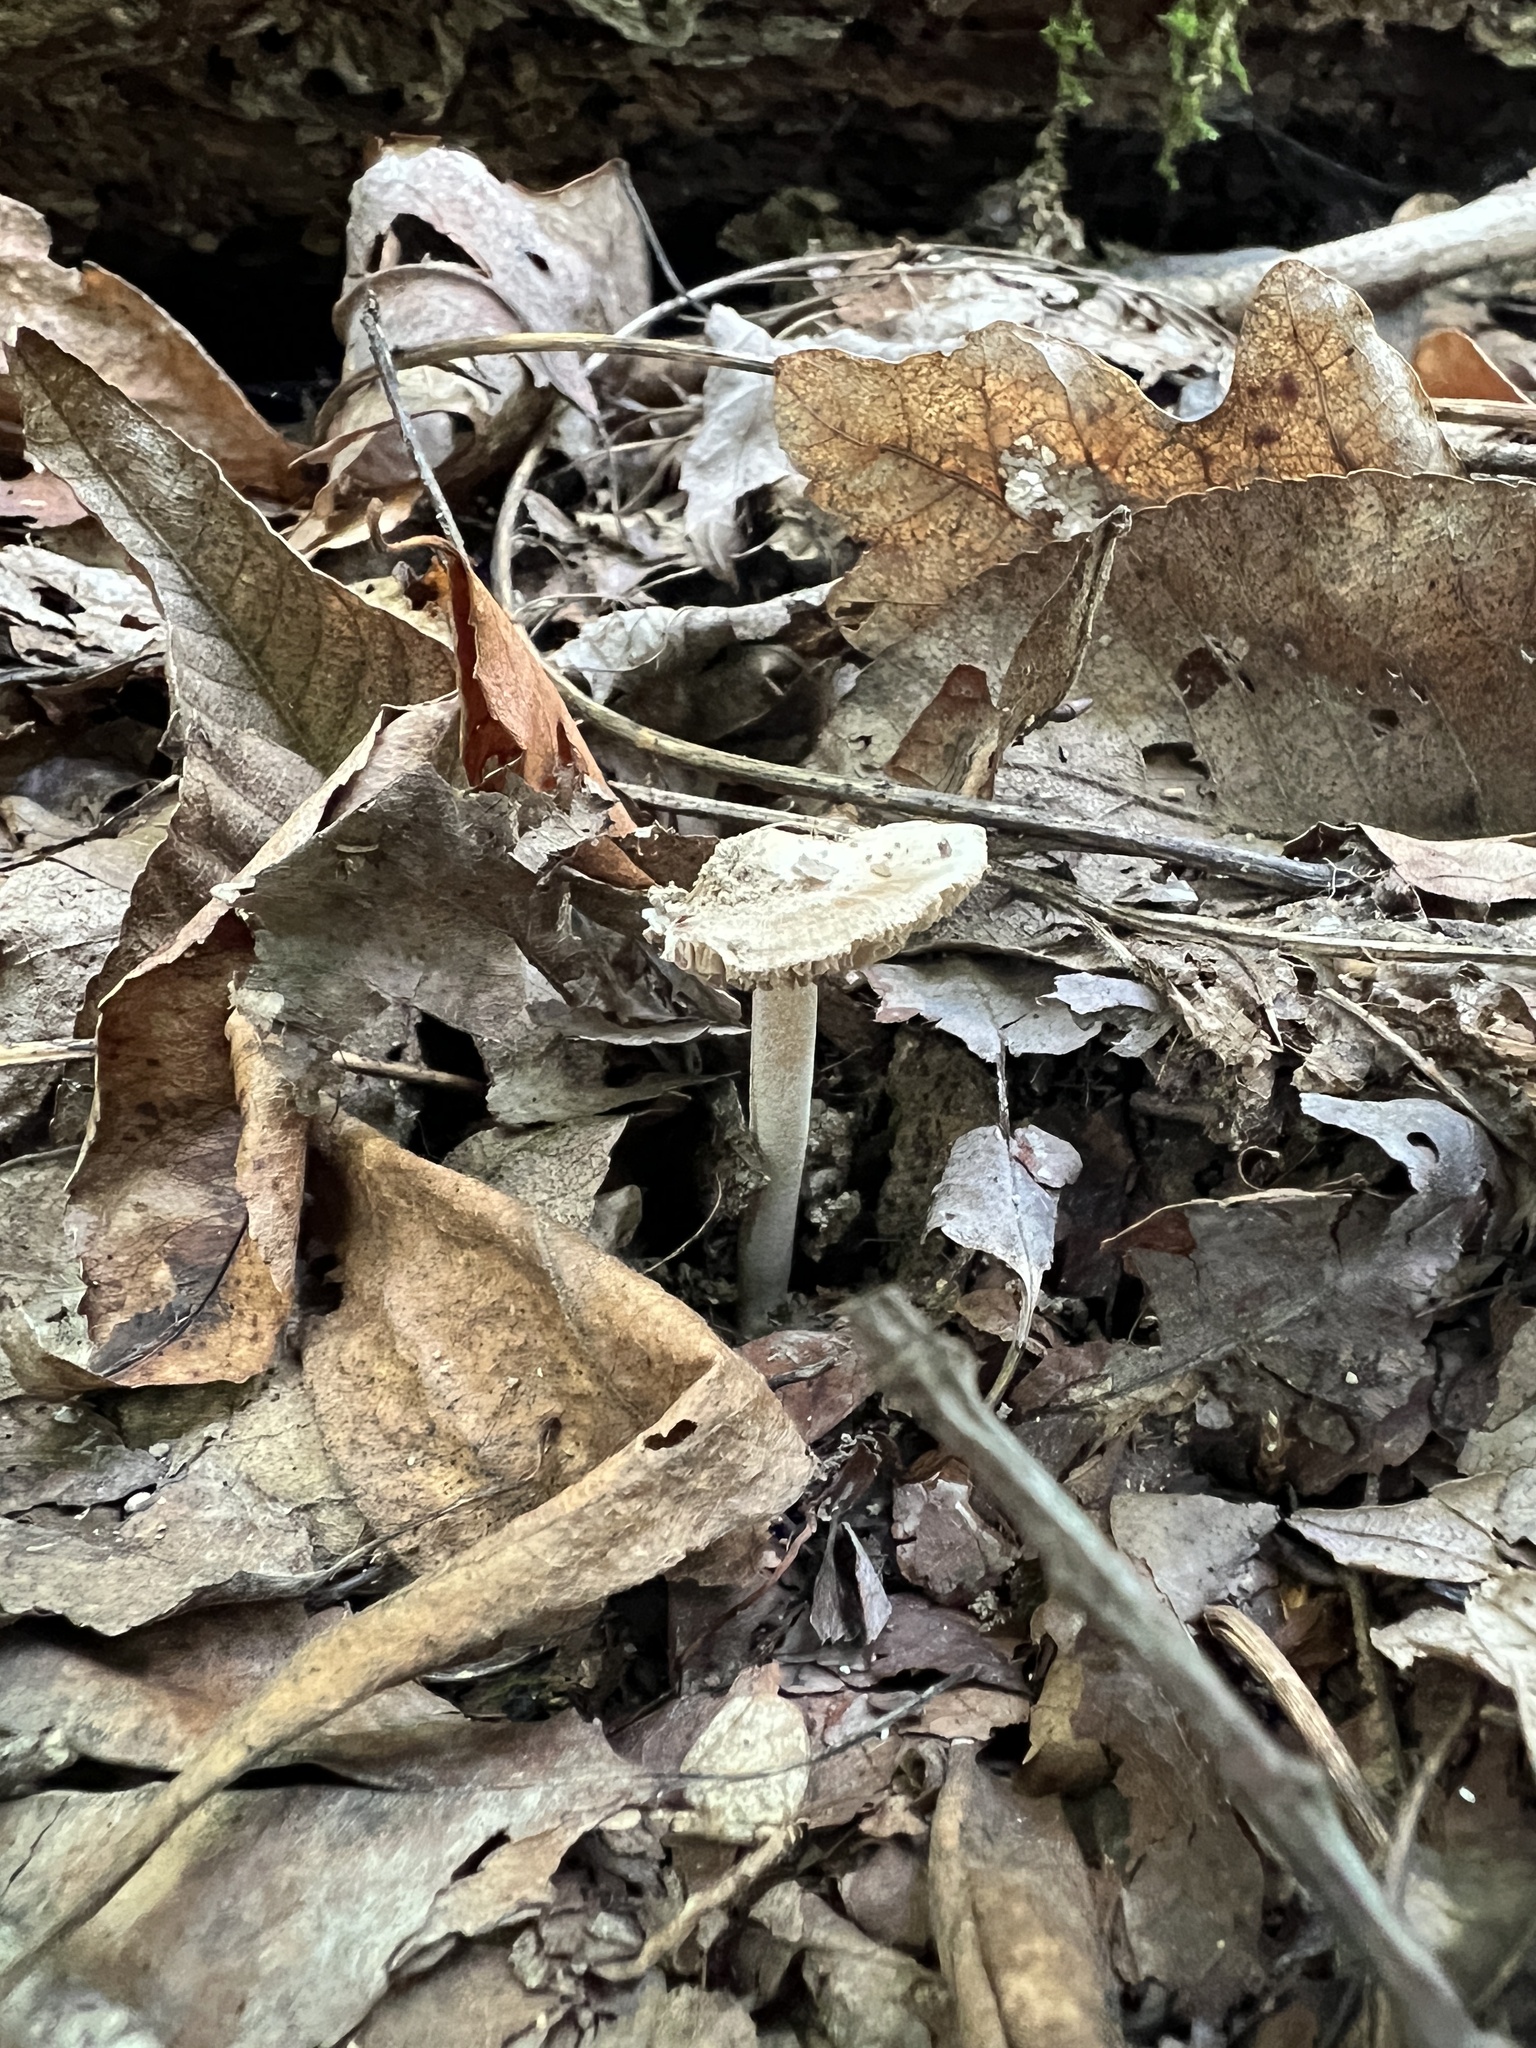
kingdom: Fungi
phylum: Basidiomycota
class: Agaricomycetes
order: Agaricales
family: Inocybaceae
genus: Inocybe
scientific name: Inocybe velicopia
